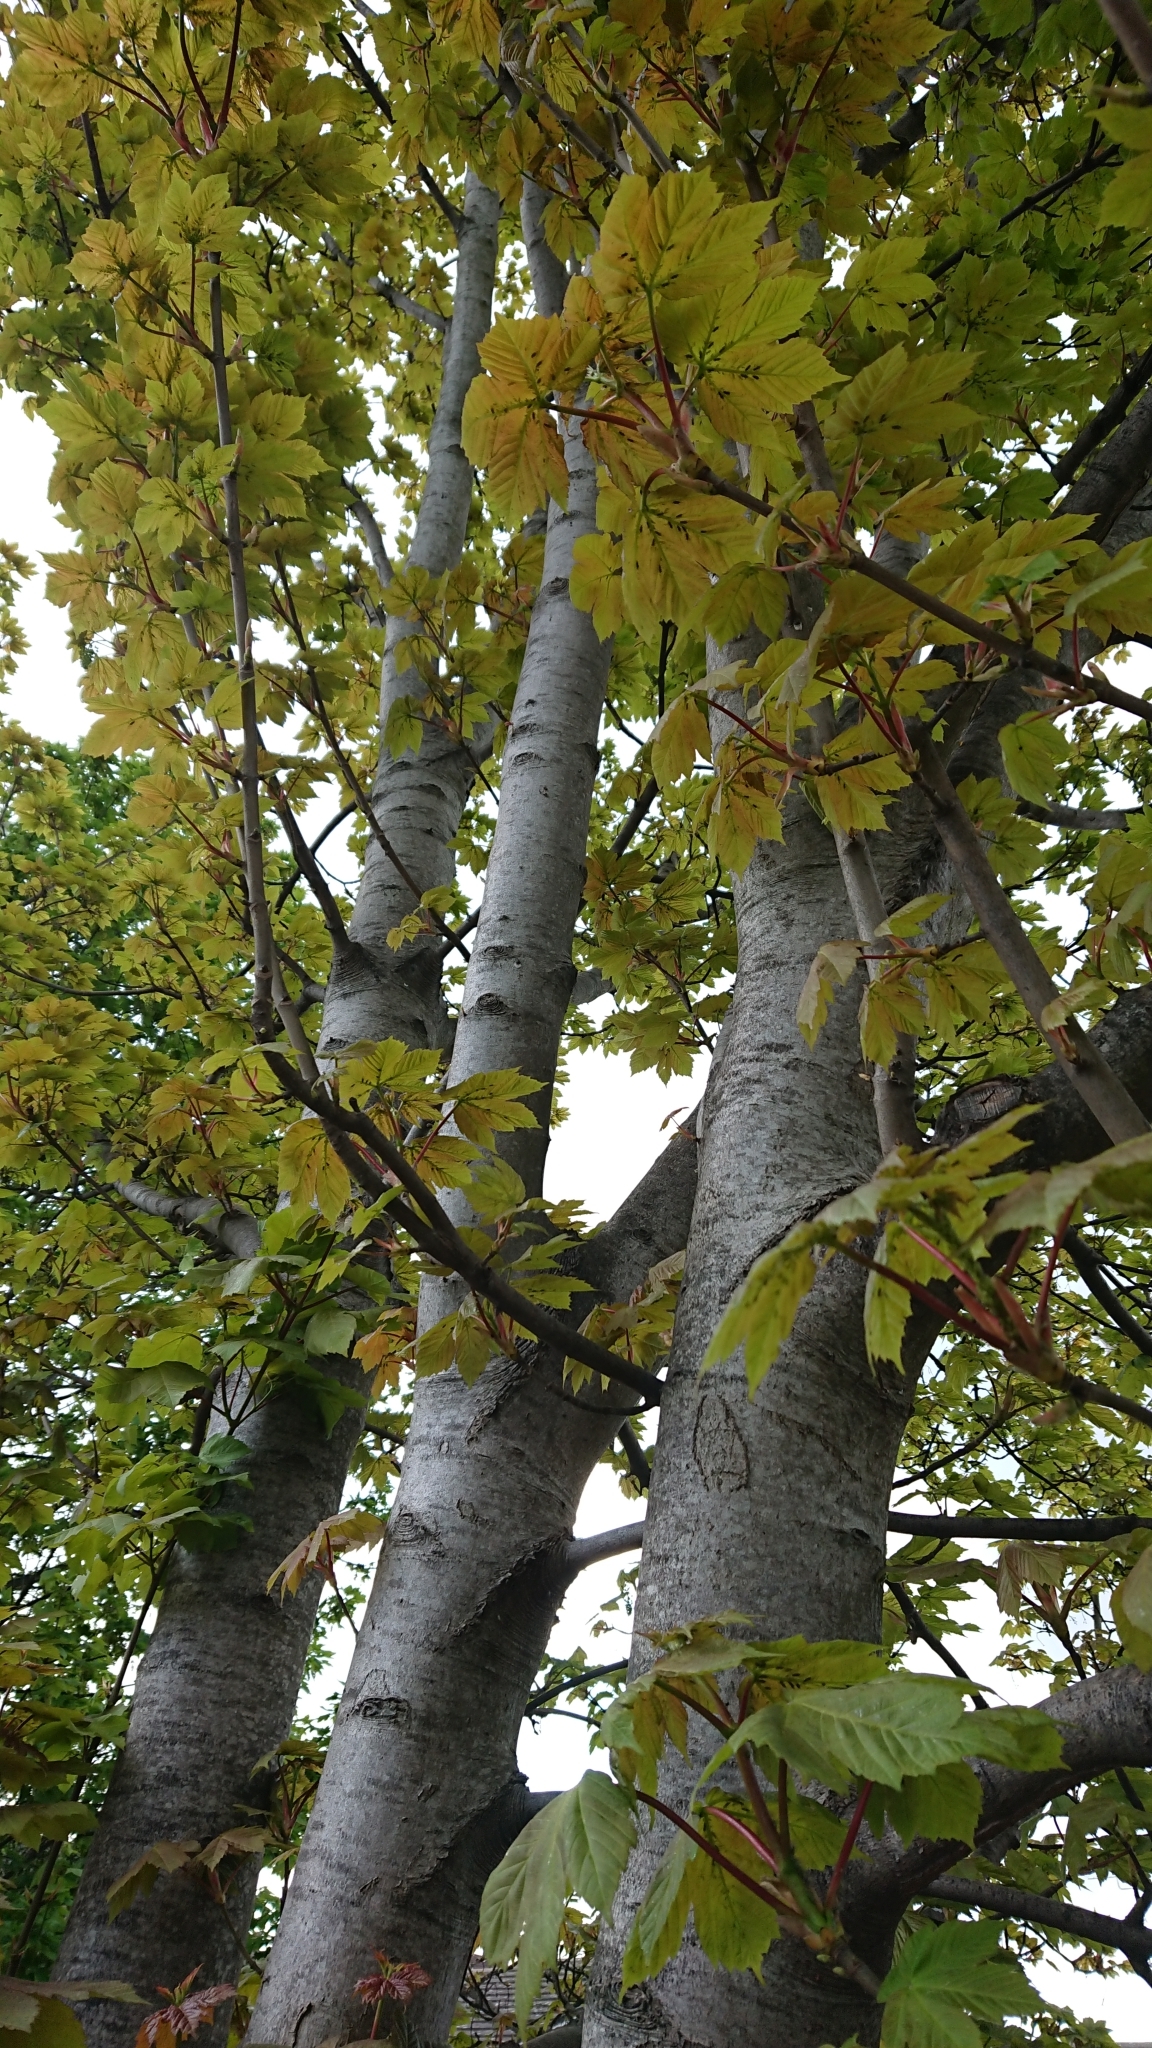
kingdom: Plantae
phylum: Tracheophyta
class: Magnoliopsida
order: Sapindales
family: Sapindaceae
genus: Acer
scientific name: Acer pseudoplatanus
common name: Sycamore
